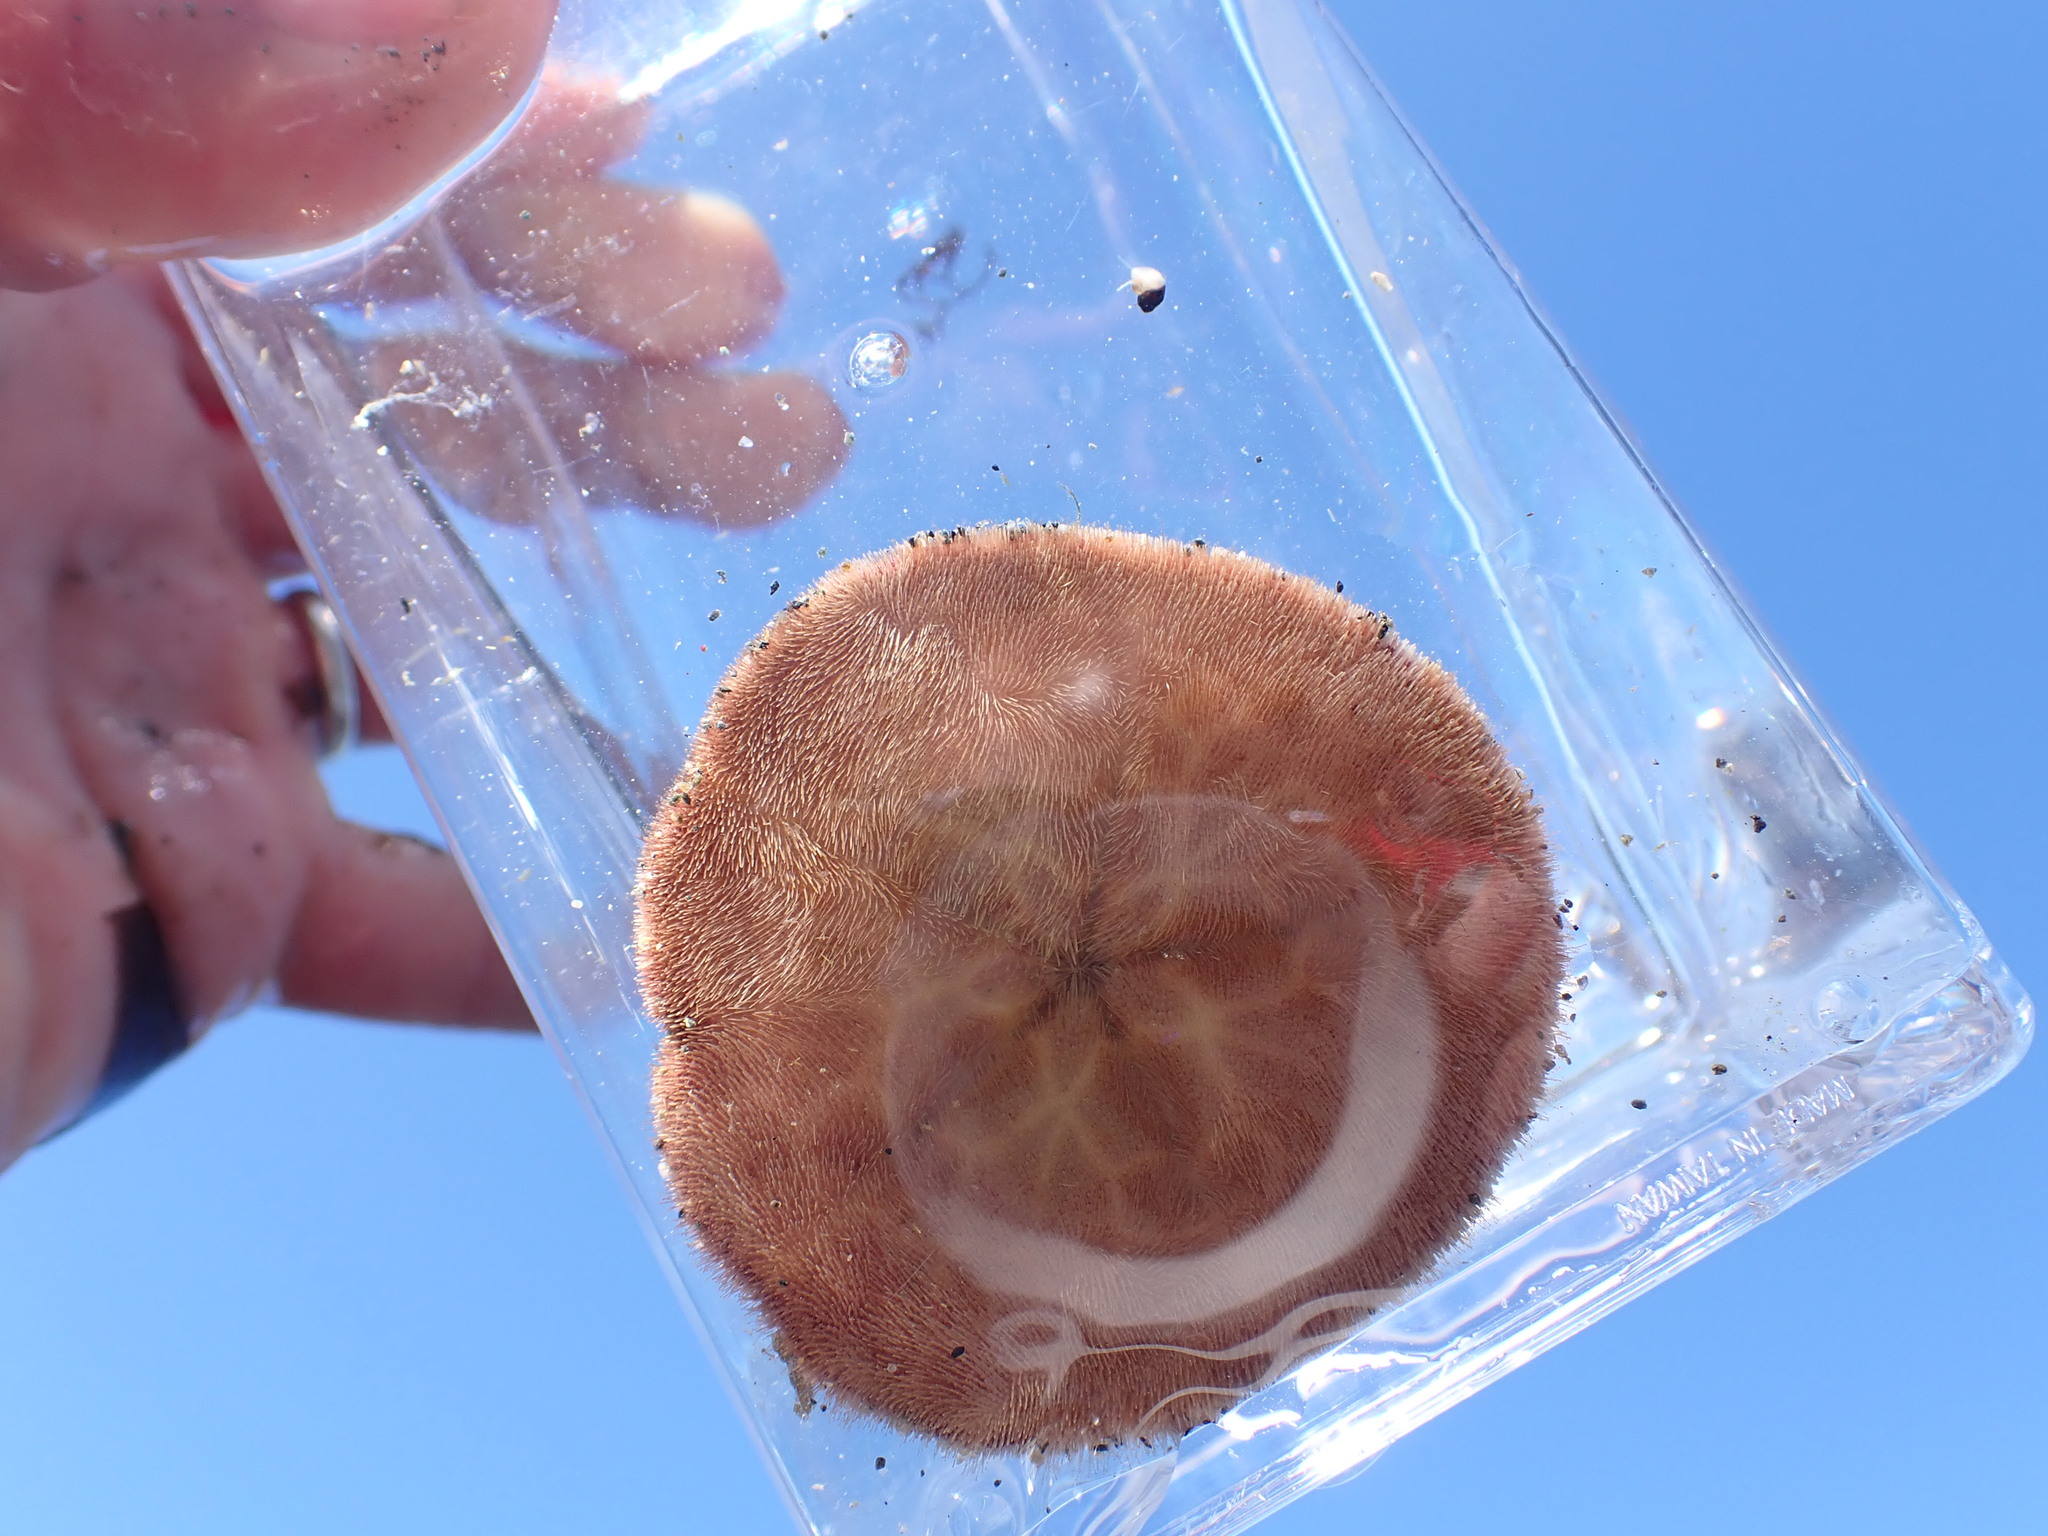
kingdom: Animalia
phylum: Echinodermata
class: Echinoidea
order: Echinolampadacea
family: Echinarachniidae
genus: Echinarachnius
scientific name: Echinarachnius parma
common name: Common sand dollar
